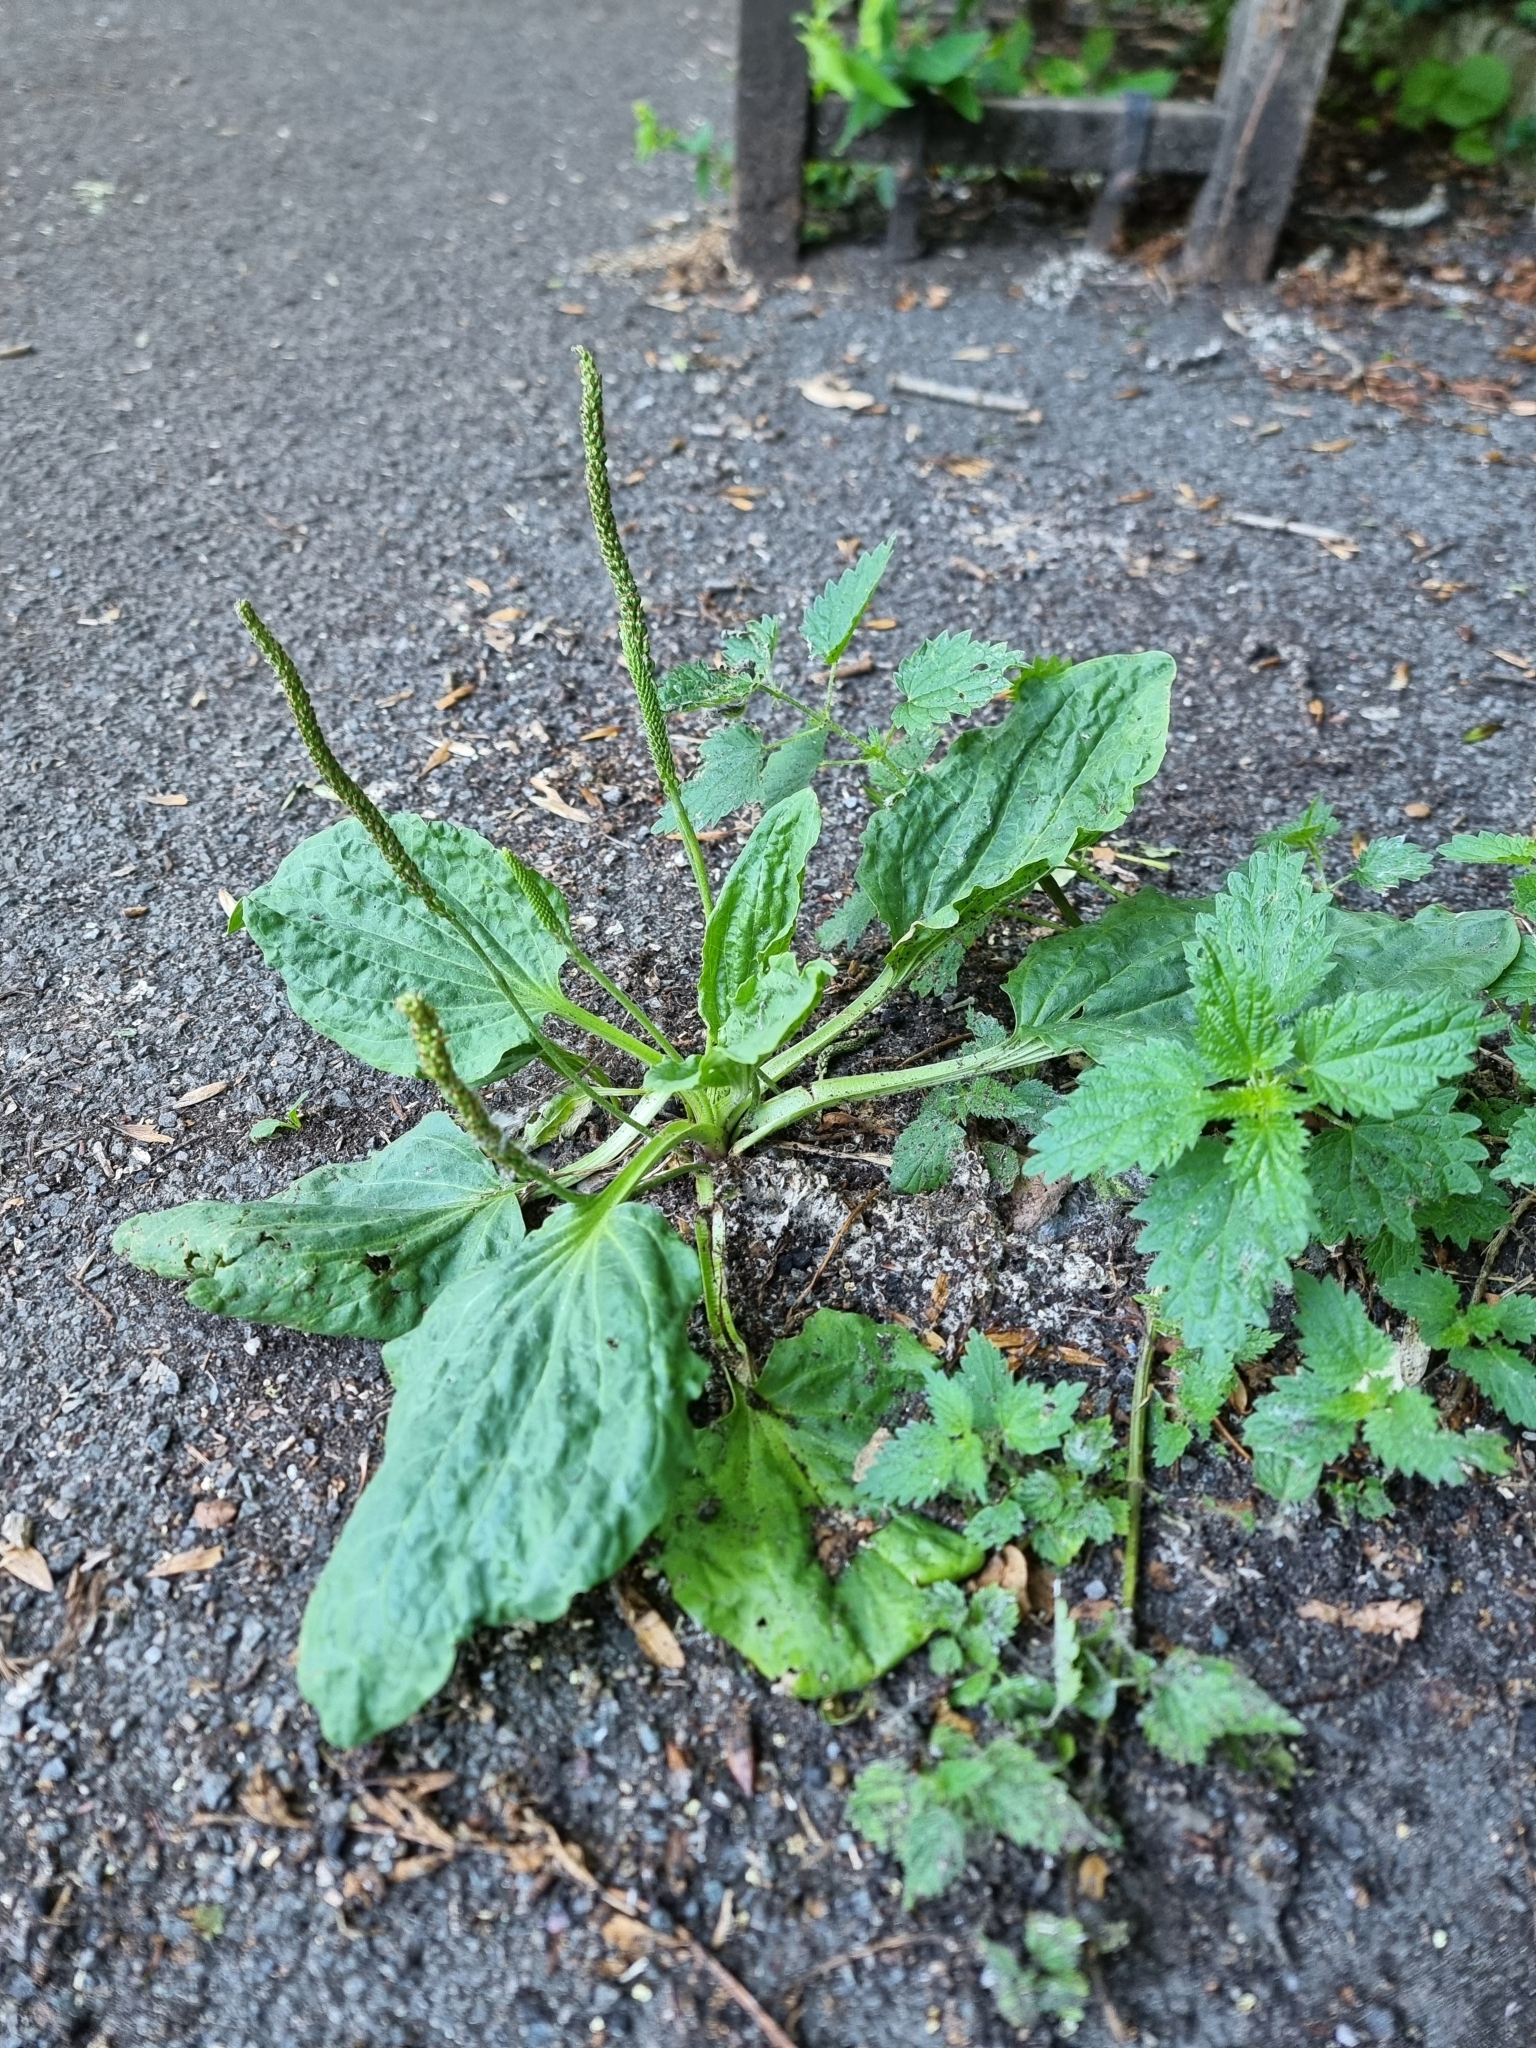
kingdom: Plantae
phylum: Tracheophyta
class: Magnoliopsida
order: Lamiales
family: Plantaginaceae
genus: Plantago
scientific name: Plantago major
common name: Common plantain
